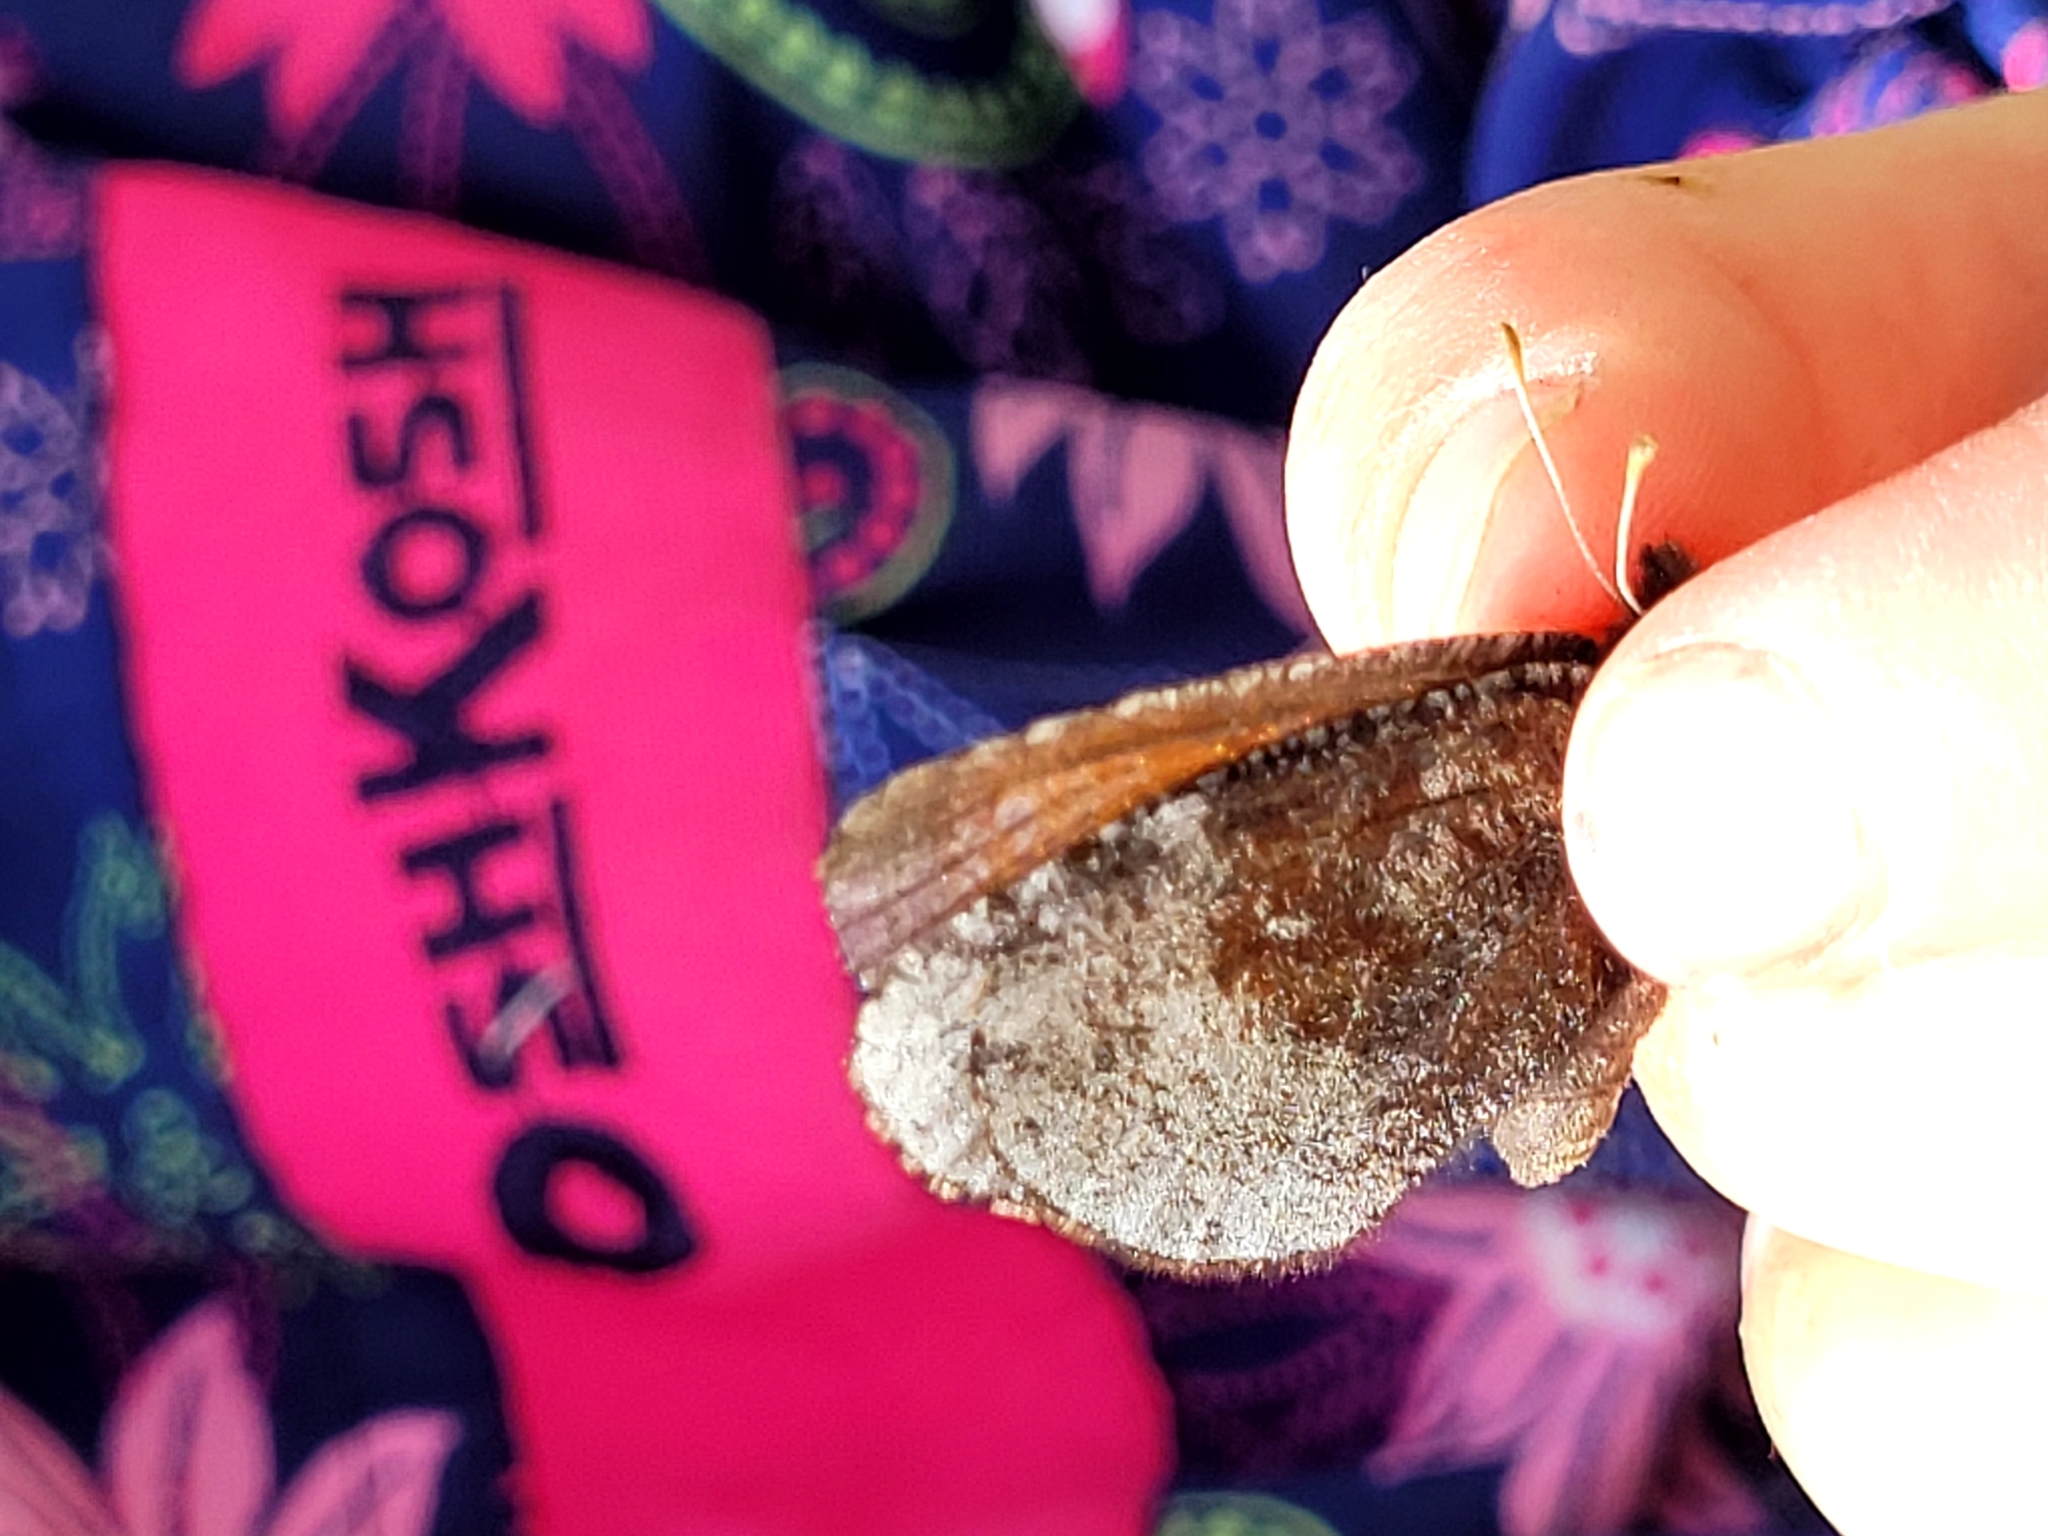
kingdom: Animalia
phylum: Arthropoda
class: Insecta
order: Lepidoptera
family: Nymphalidae
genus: Erebia
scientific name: Erebia discoidalis
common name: Red-disked alpine
